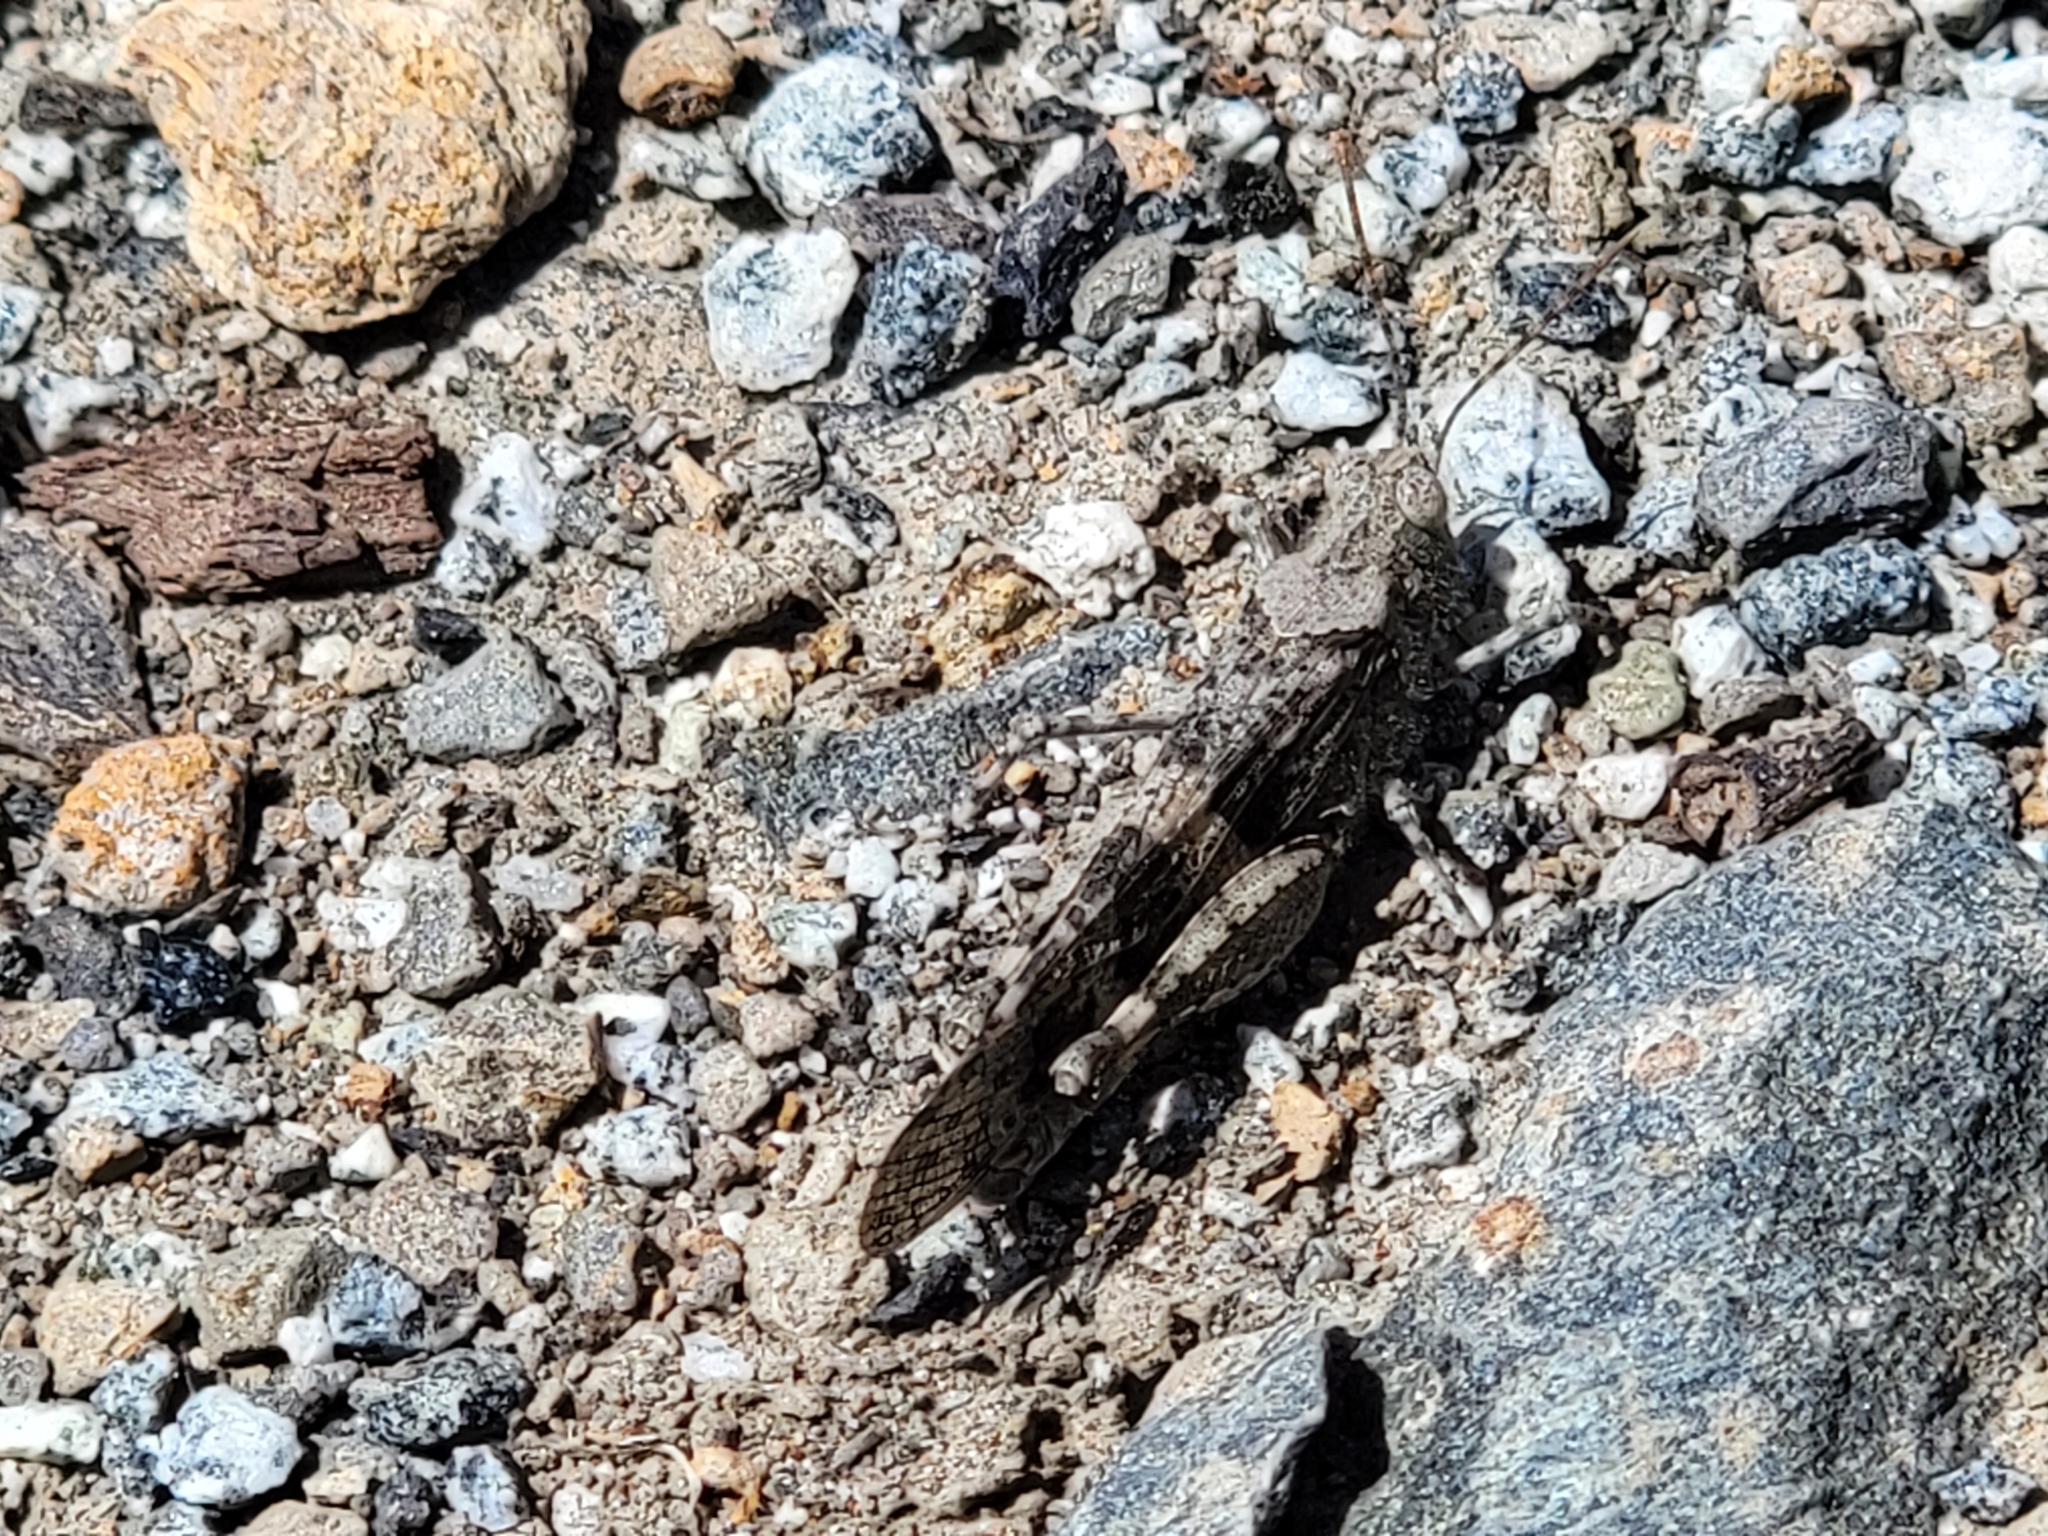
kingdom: Animalia
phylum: Arthropoda
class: Insecta
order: Orthoptera
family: Acrididae
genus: Trimerotropis
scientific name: Trimerotropis pallidipennis
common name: Pallid-winged grasshopper
